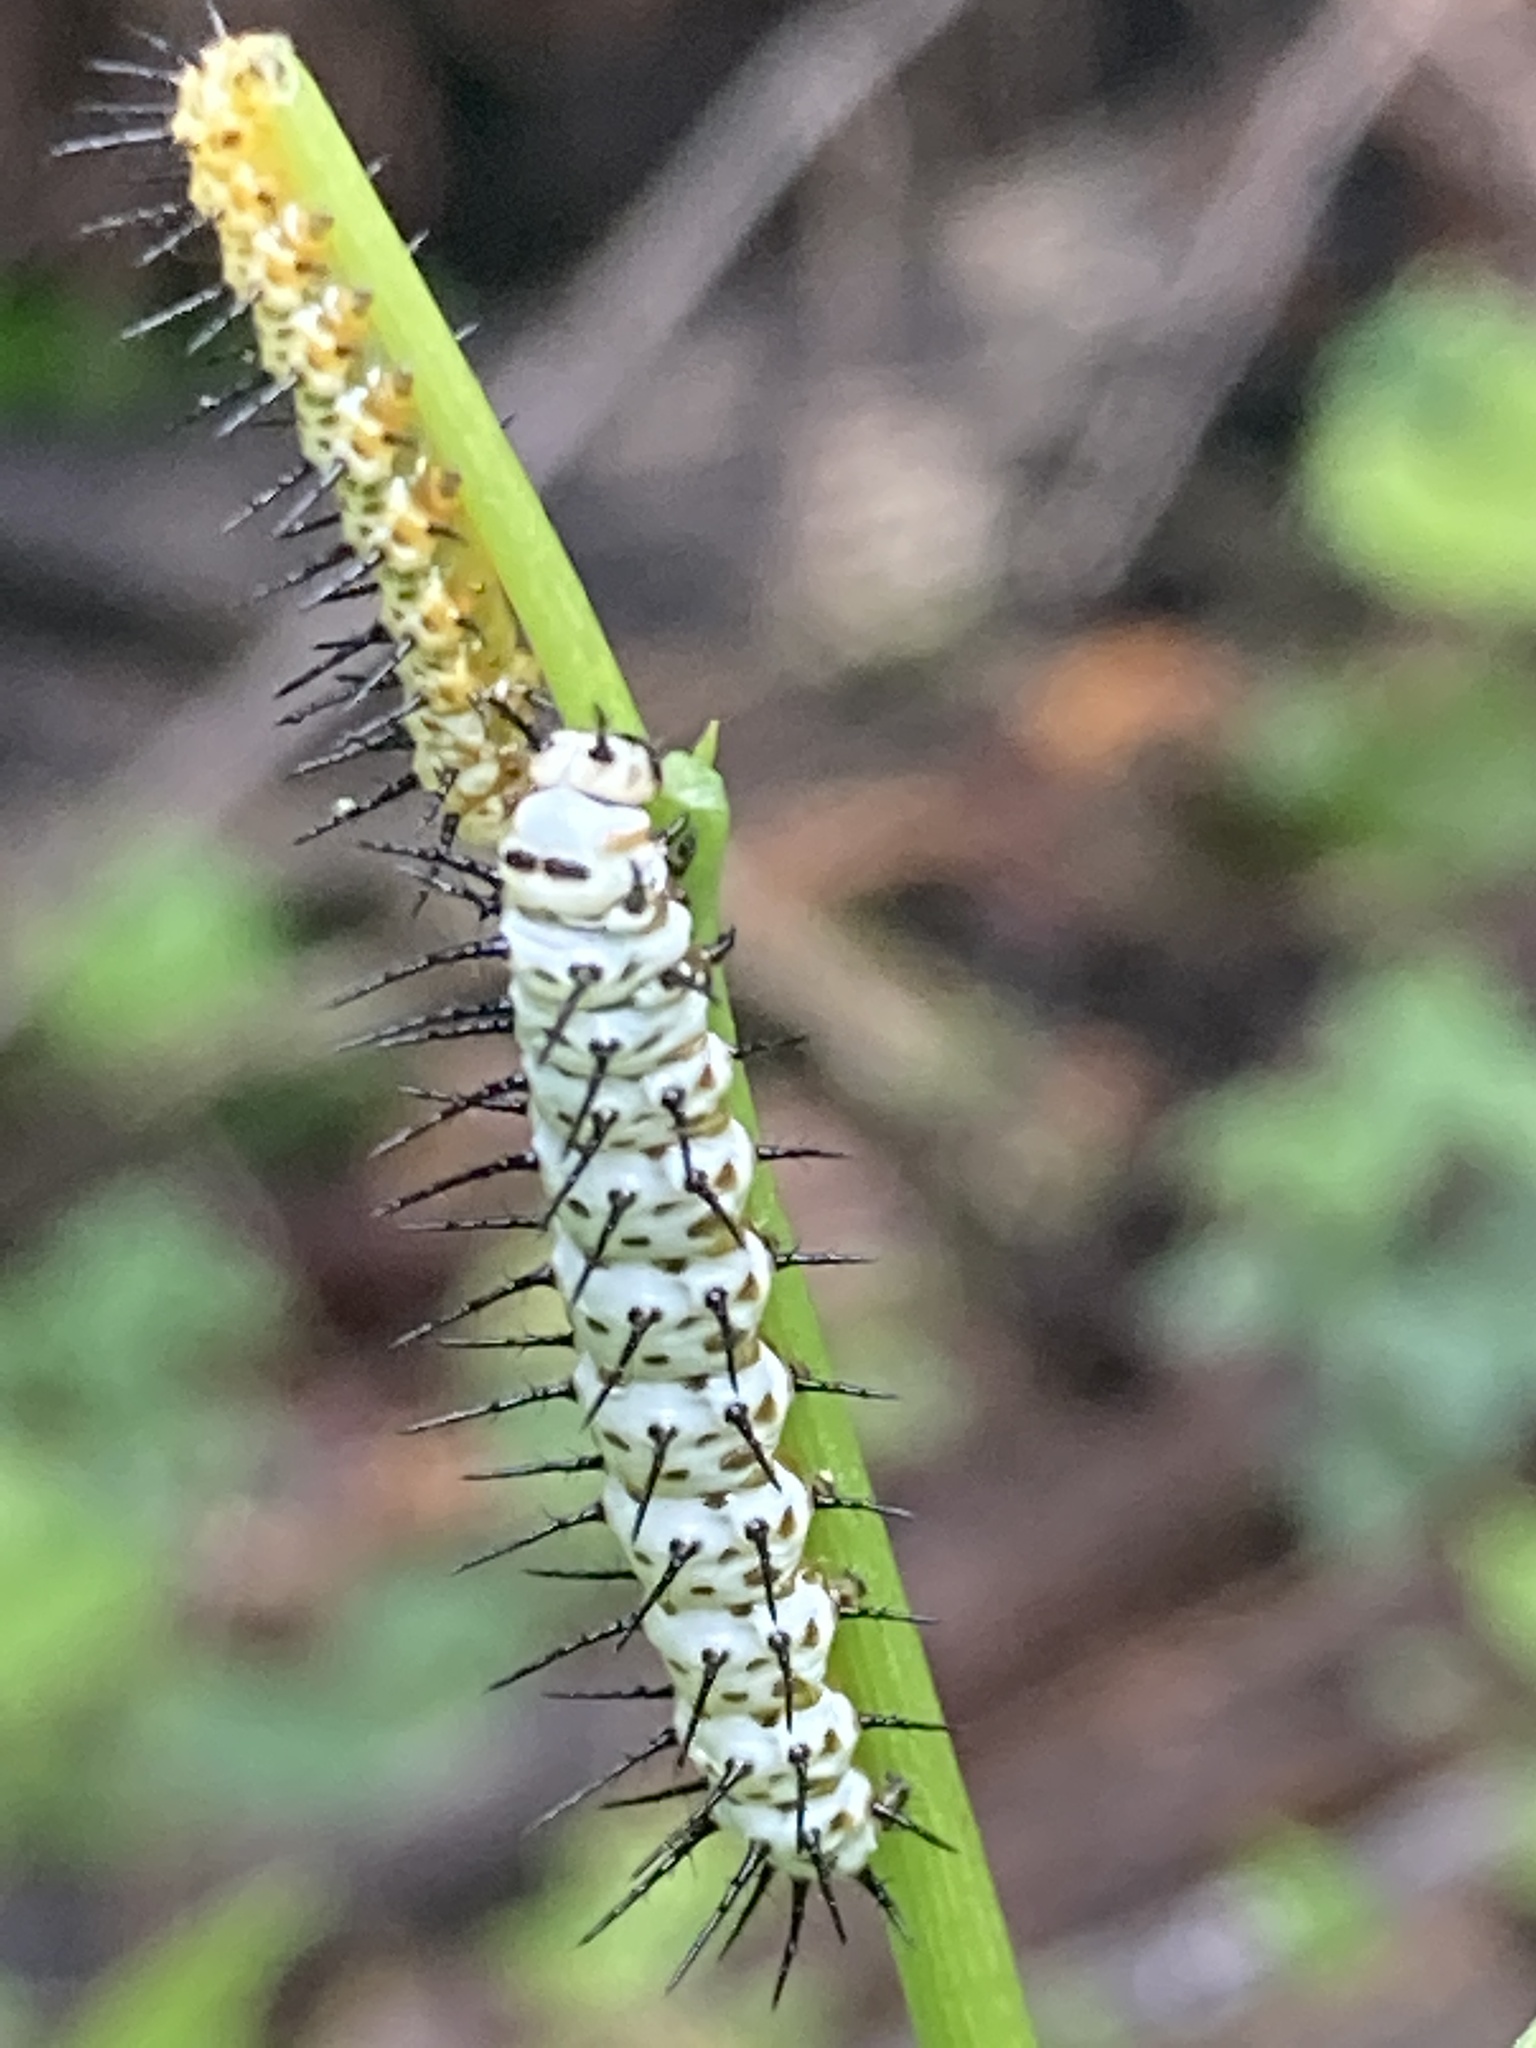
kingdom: Animalia
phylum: Arthropoda
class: Insecta
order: Lepidoptera
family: Nymphalidae
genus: Heliconius
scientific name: Heliconius charithonia
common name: Zebra long wing
